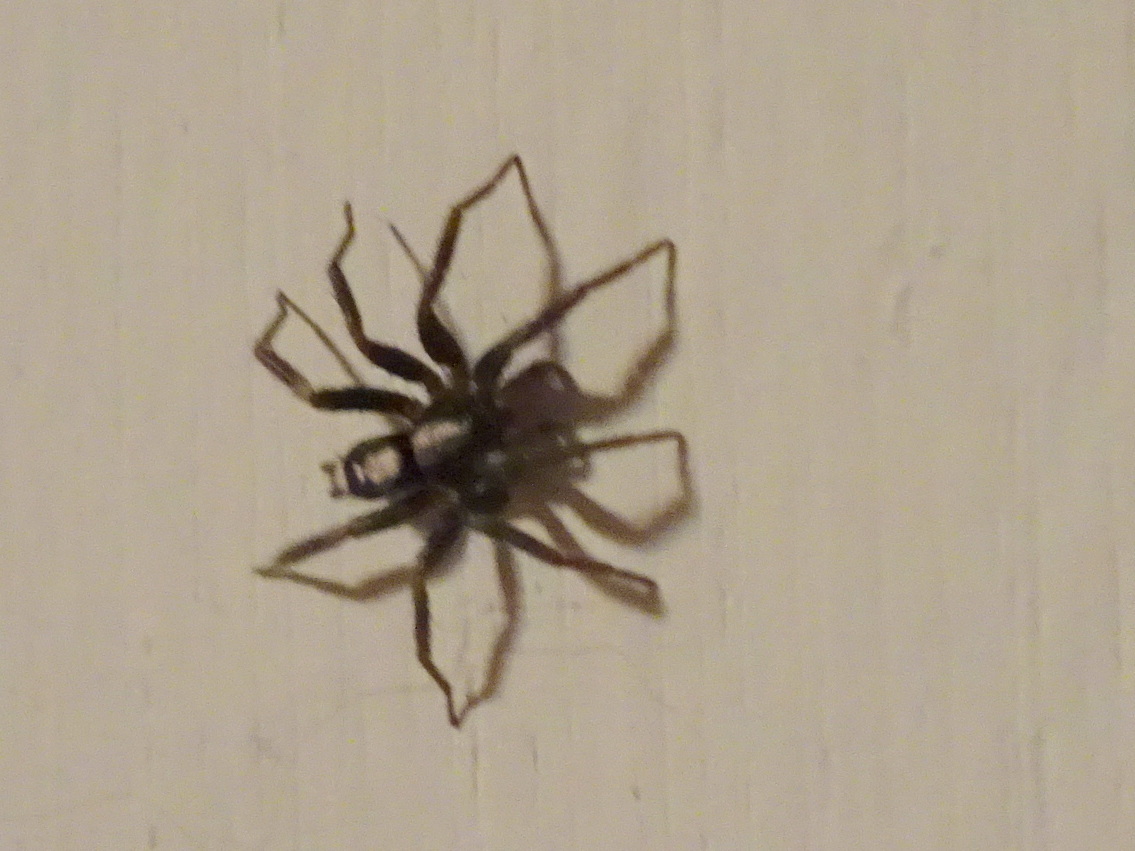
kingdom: Animalia
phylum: Arthropoda
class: Arachnida
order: Araneae
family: Gnaphosidae
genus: Herpyllus
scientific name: Herpyllus ecclesiasticus
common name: Eastern parson spider
